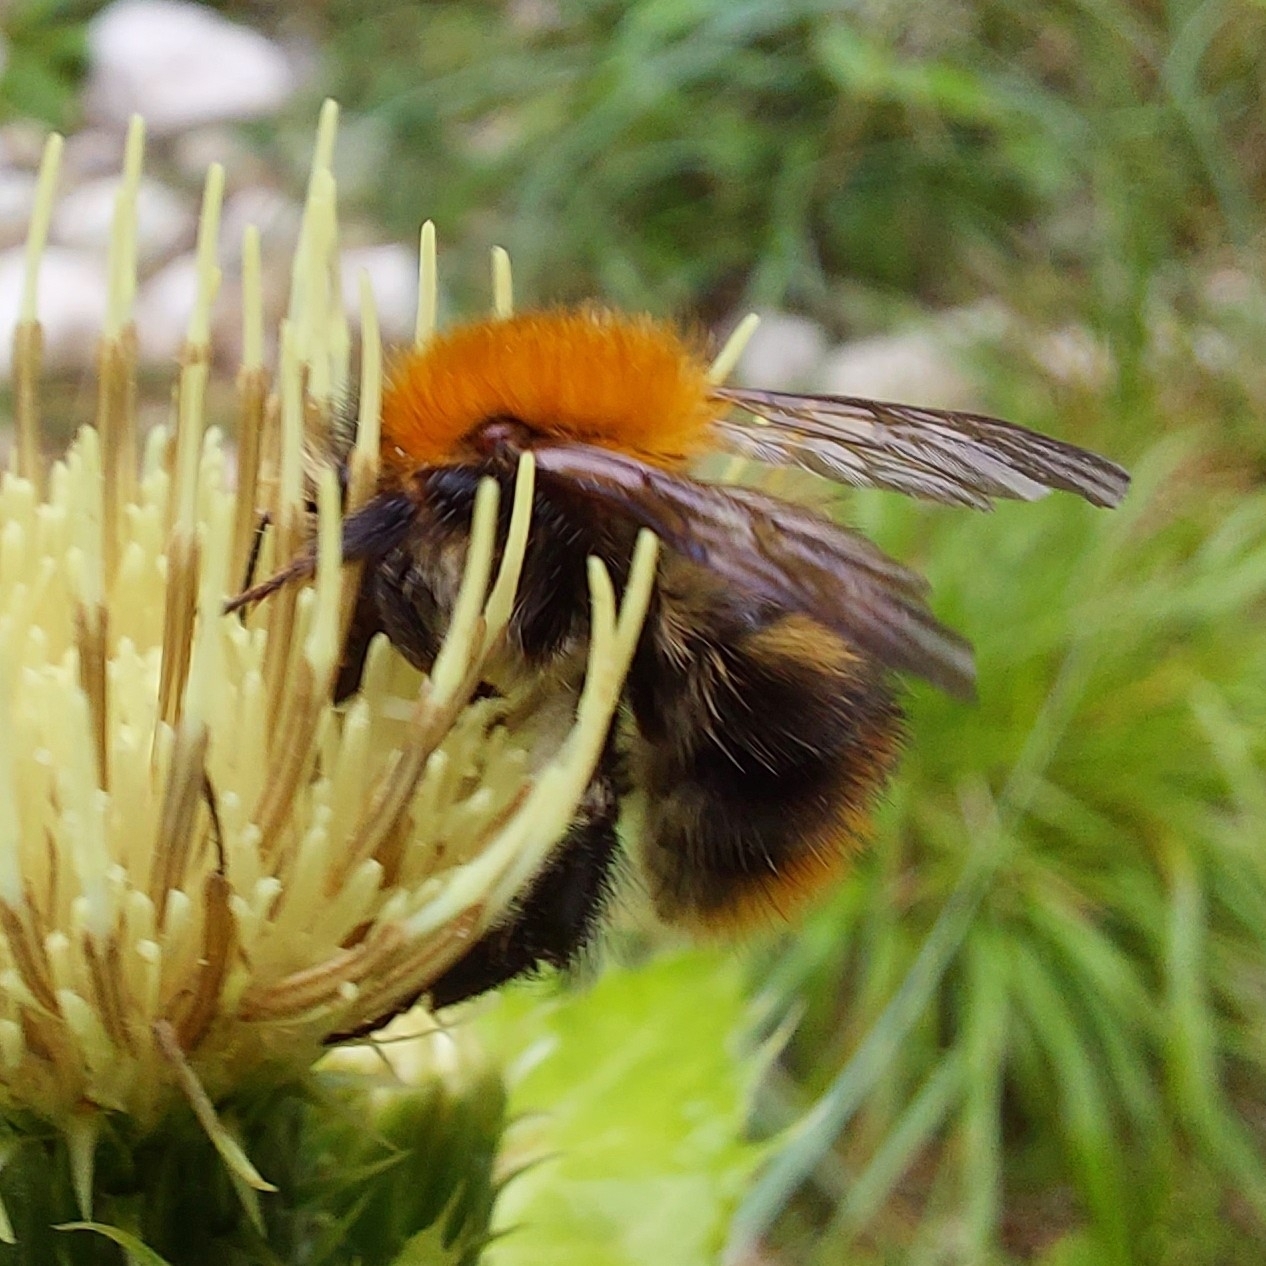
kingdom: Animalia
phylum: Arthropoda
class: Insecta
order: Hymenoptera
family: Apidae
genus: Bombus
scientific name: Bombus pascuorum
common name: Common carder bee
